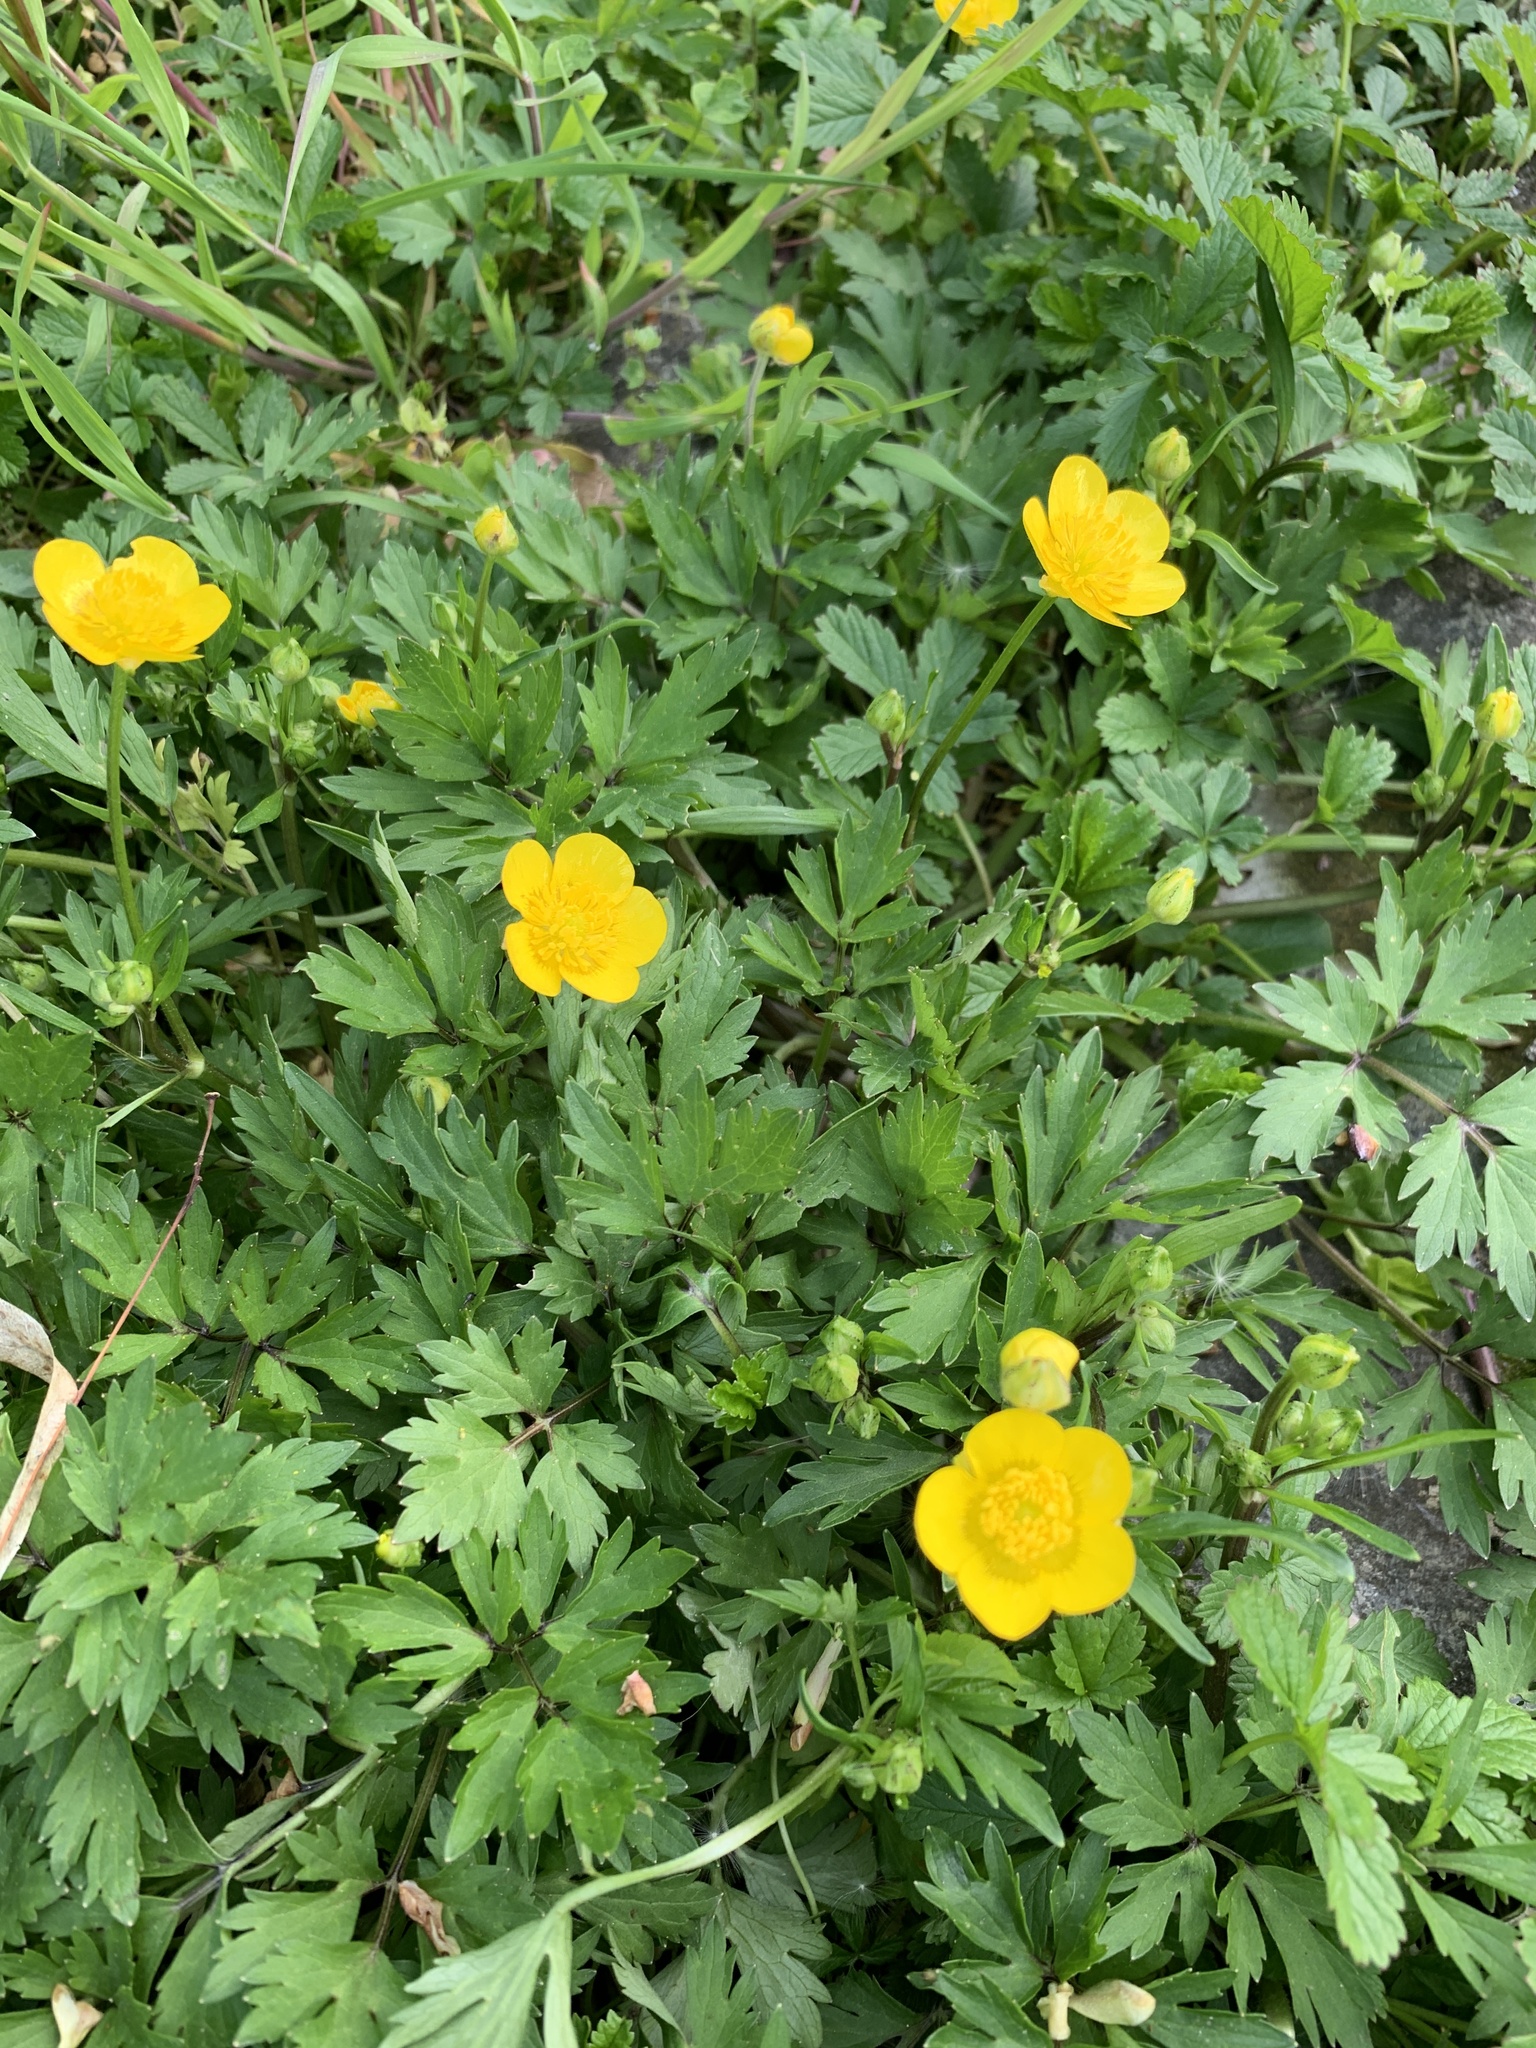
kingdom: Plantae
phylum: Tracheophyta
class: Magnoliopsida
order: Ranunculales
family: Ranunculaceae
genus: Ranunculus
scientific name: Ranunculus repens
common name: Creeping buttercup
